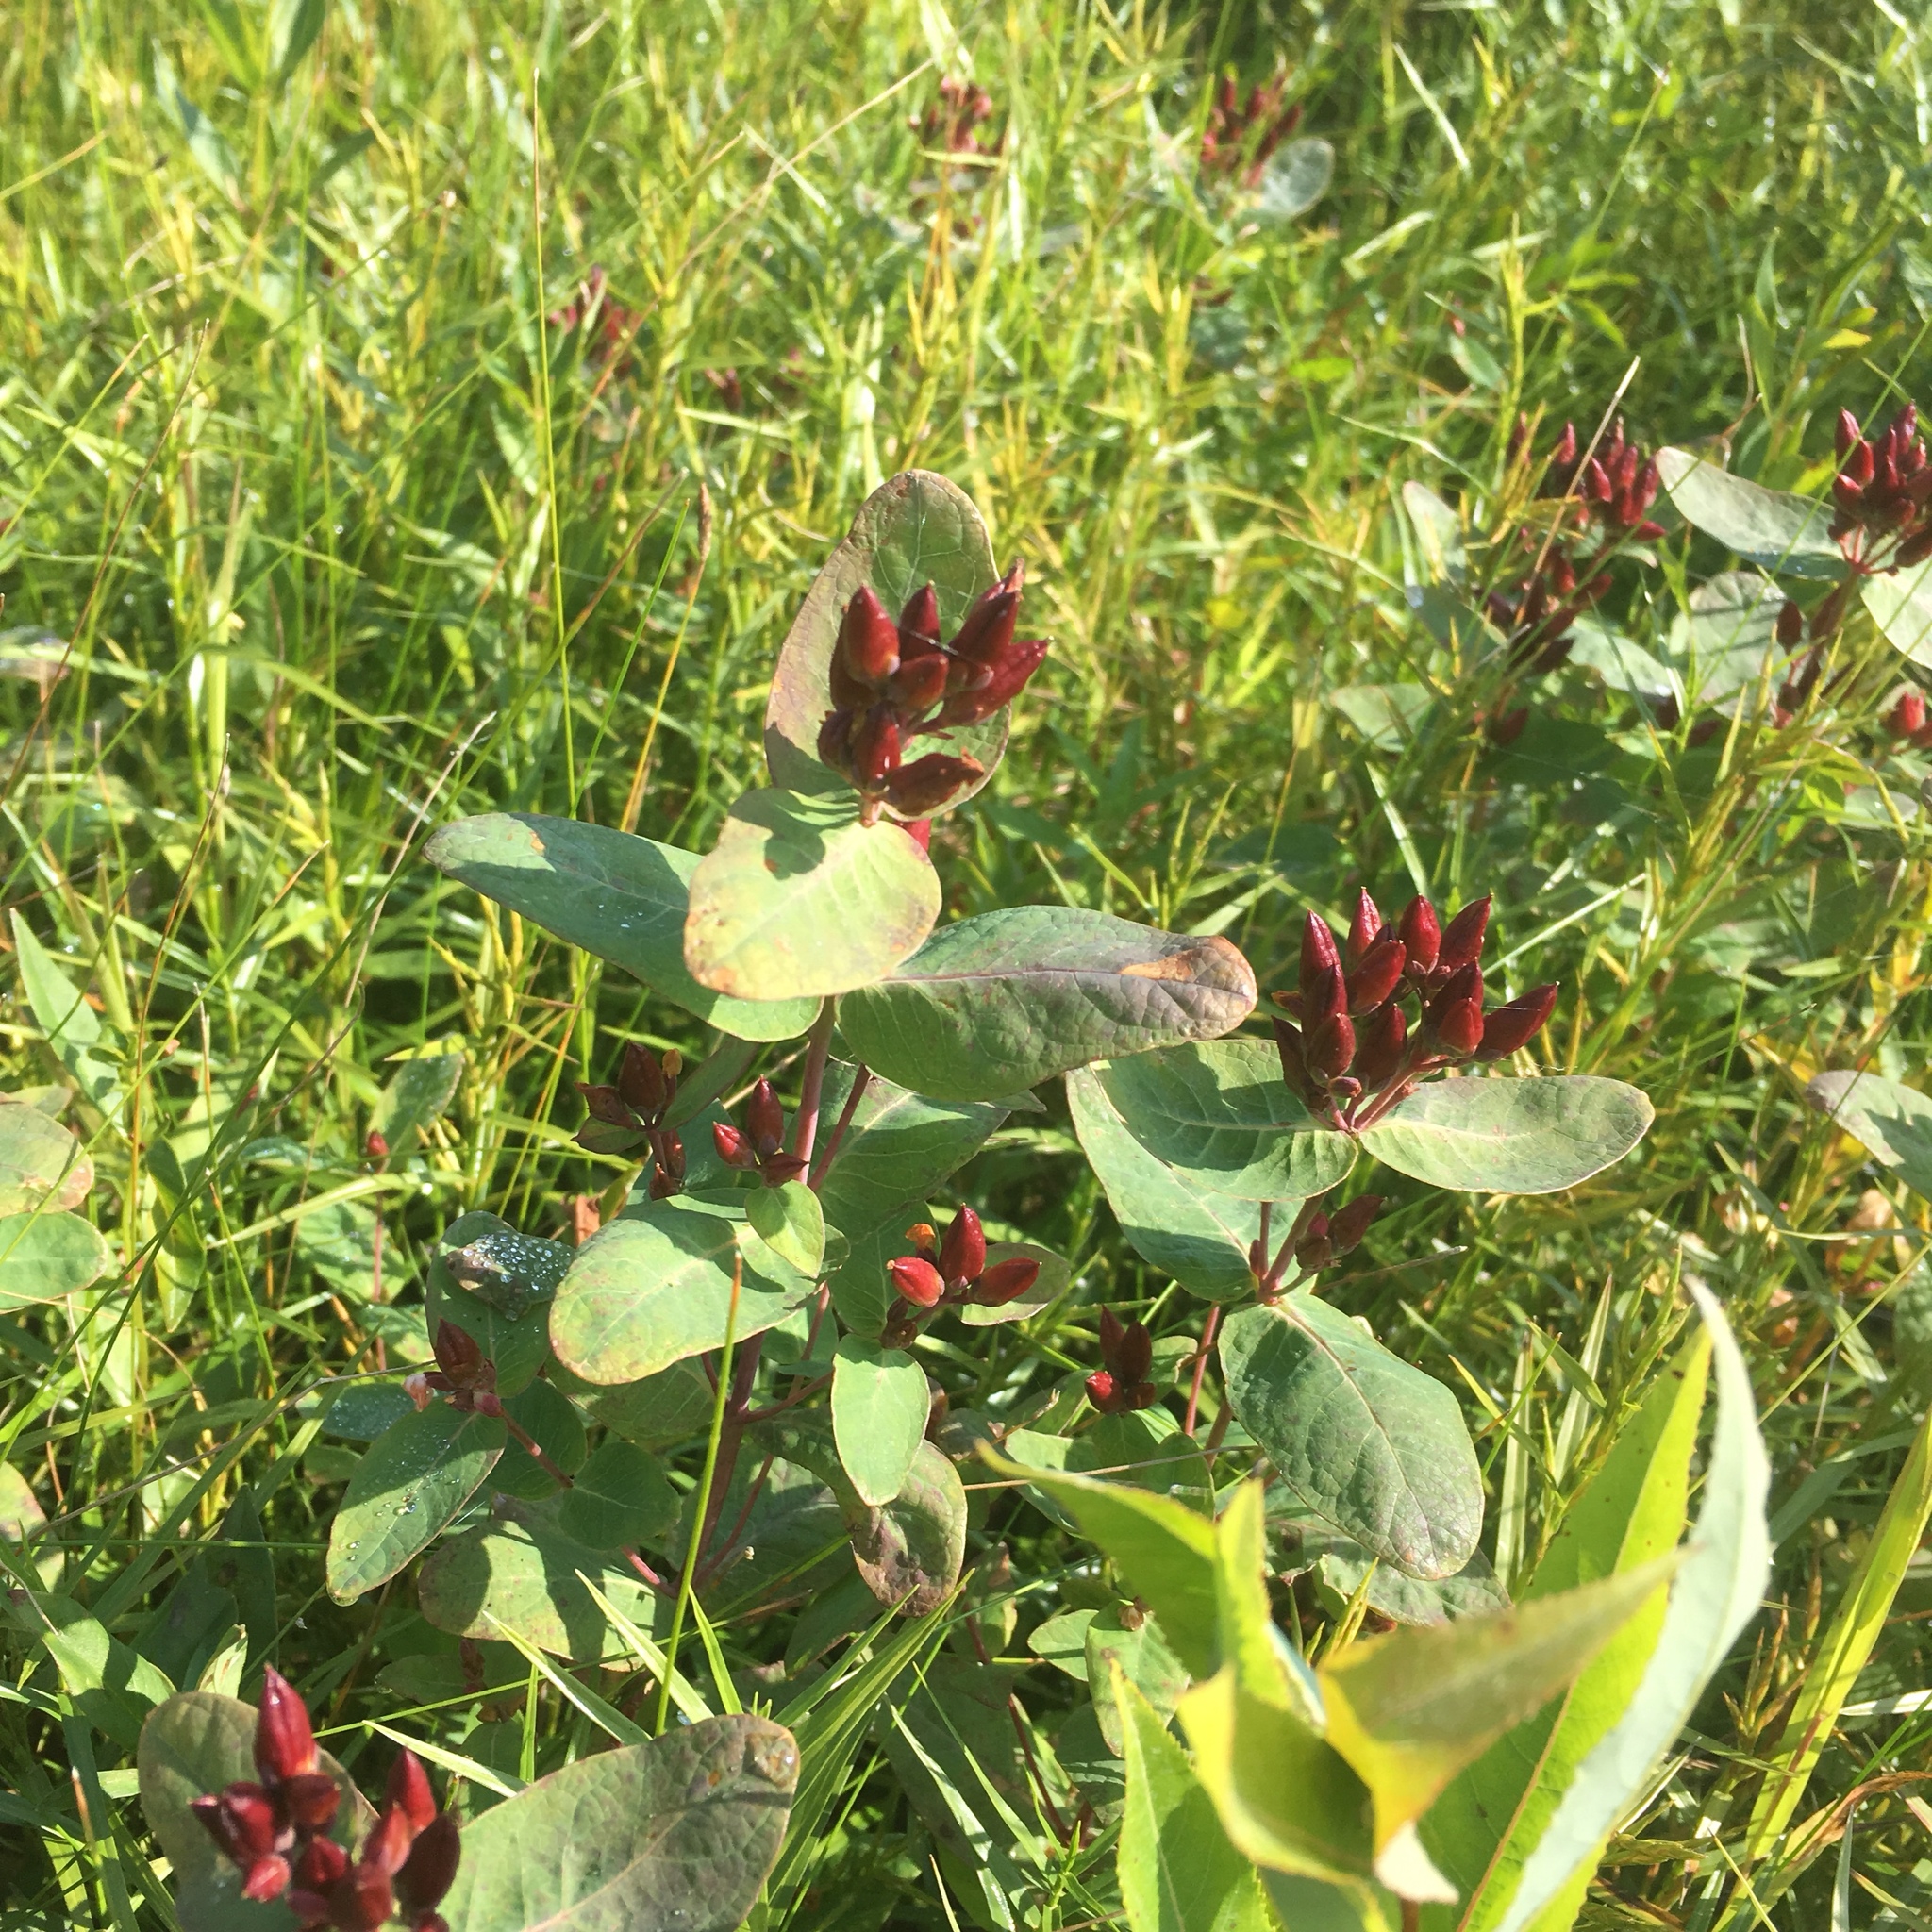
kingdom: Plantae
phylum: Tracheophyta
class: Magnoliopsida
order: Malpighiales
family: Hypericaceae
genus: Triadenum
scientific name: Triadenum fraseri
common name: Fraser's marsh st. johnswort
